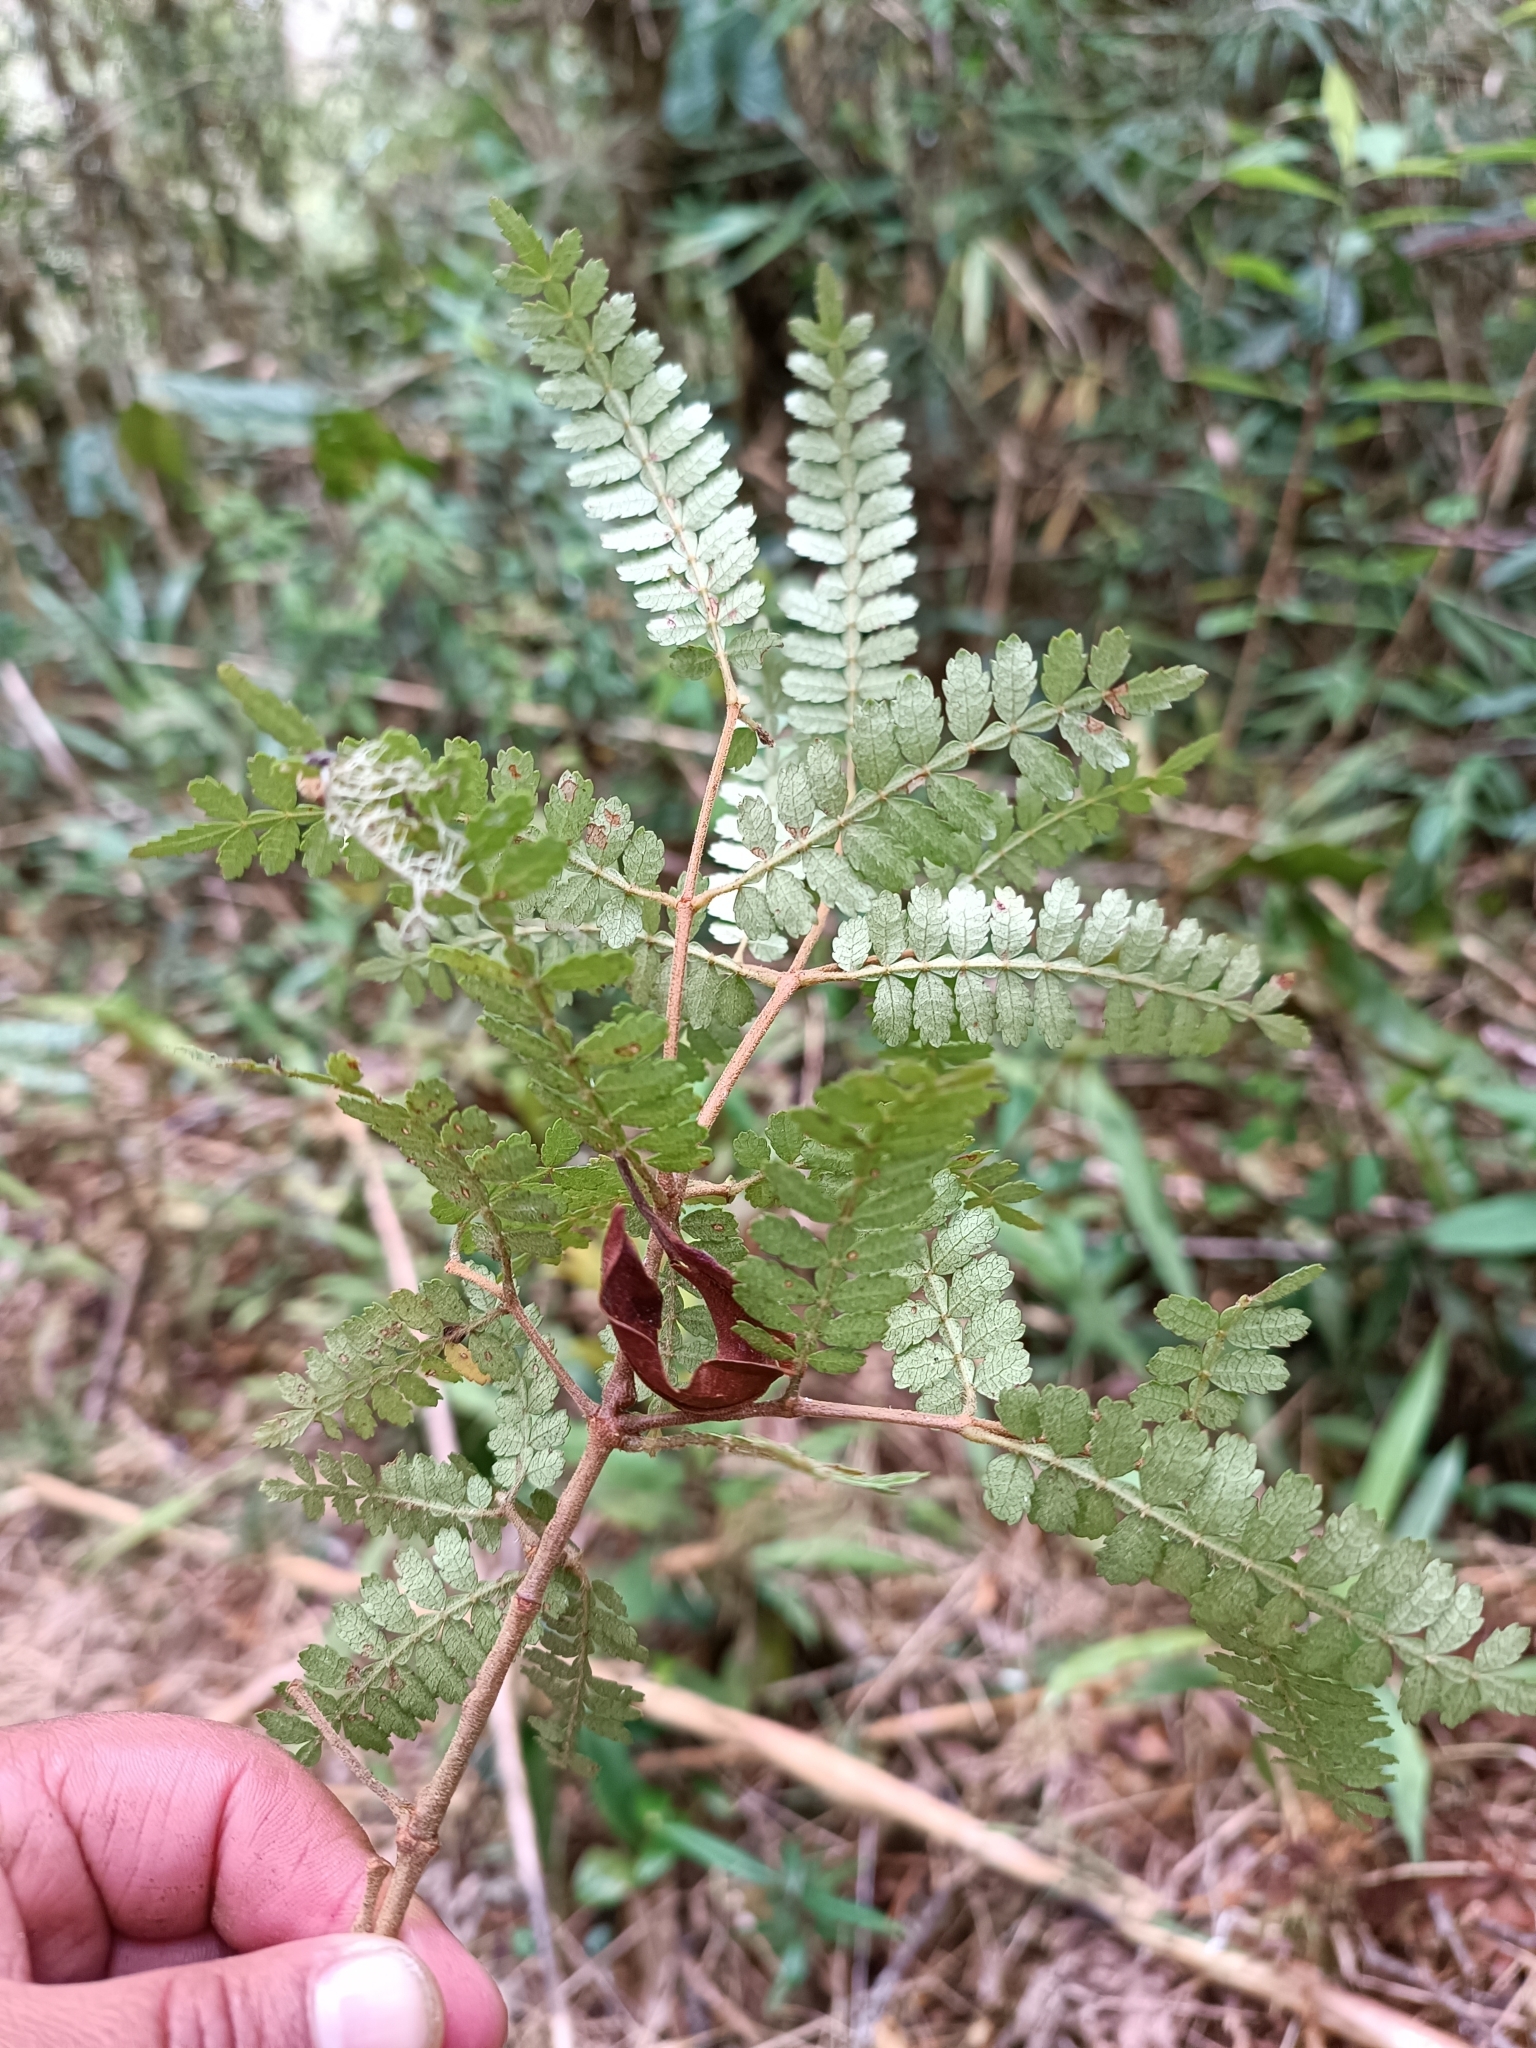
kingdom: Plantae
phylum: Tracheophyta
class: Magnoliopsida
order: Oxalidales
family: Cunoniaceae
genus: Weinmannia
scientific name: Weinmannia microphylla
